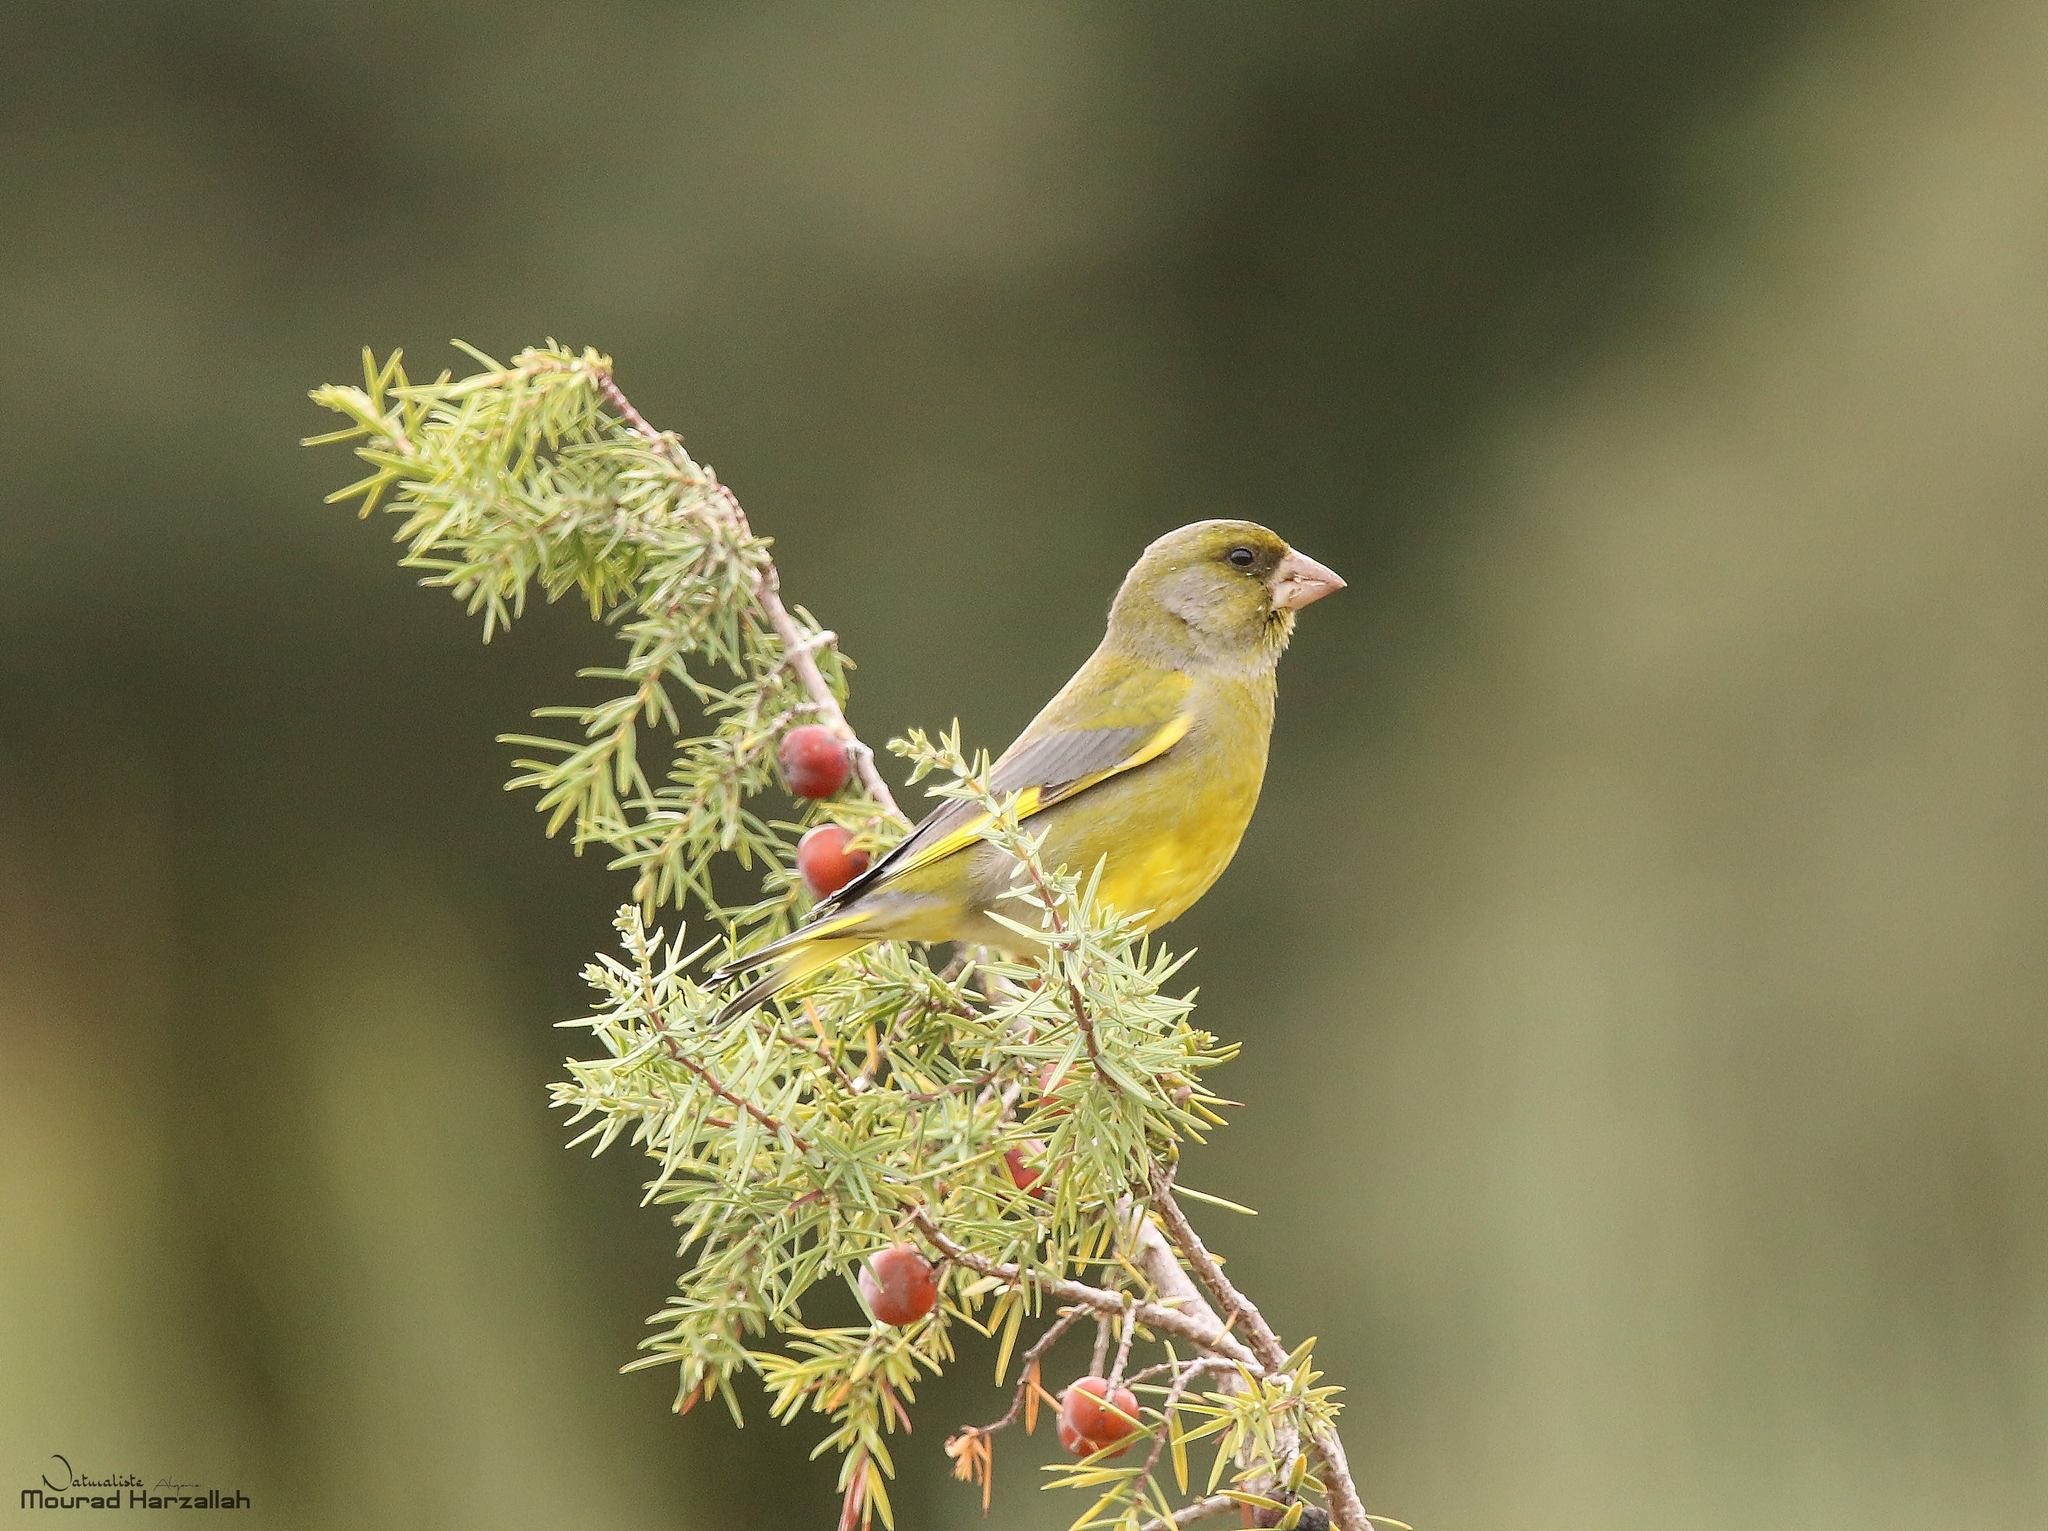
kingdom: Plantae
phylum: Tracheophyta
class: Liliopsida
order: Poales
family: Poaceae
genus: Chloris
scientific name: Chloris chloris
